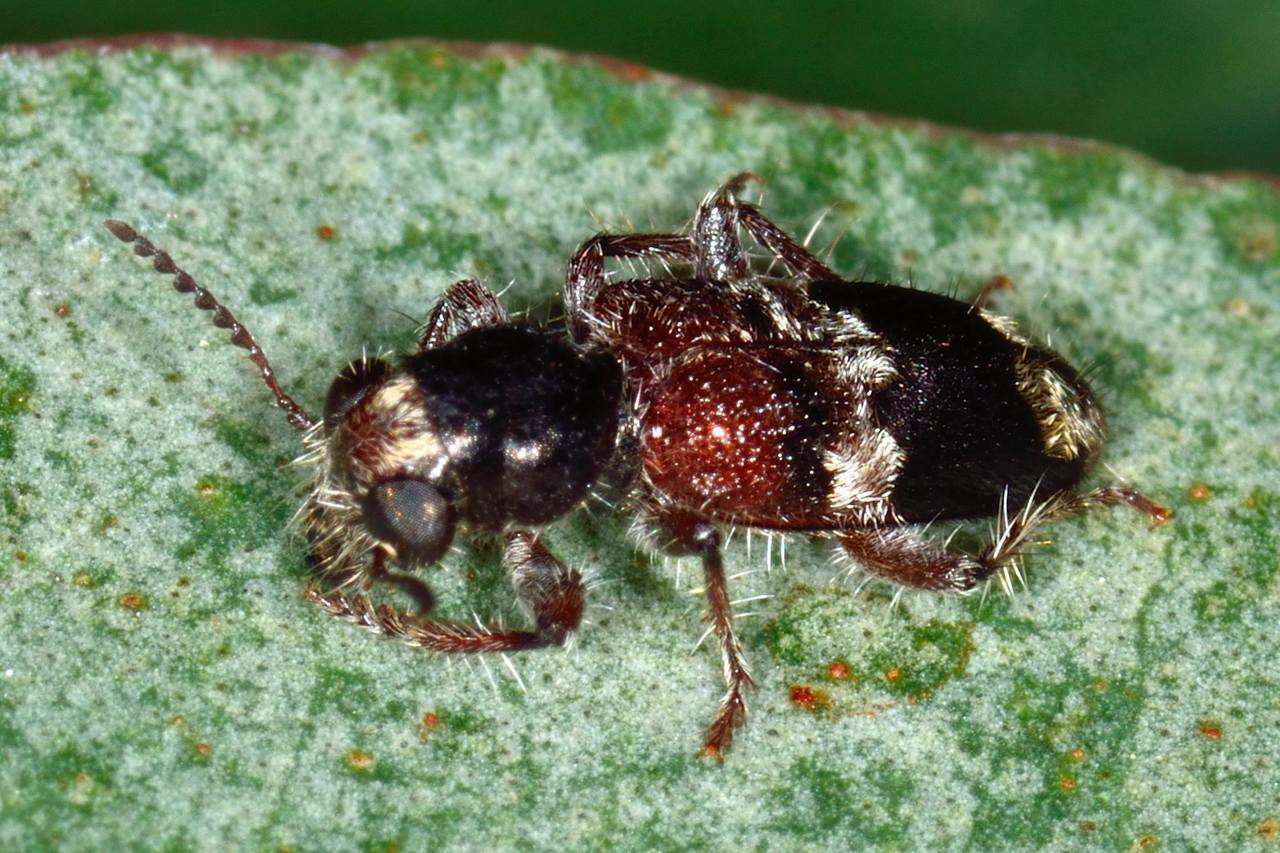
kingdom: Animalia
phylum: Arthropoda
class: Insecta
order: Coleoptera
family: Cleridae
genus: Clerus
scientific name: Clerus
